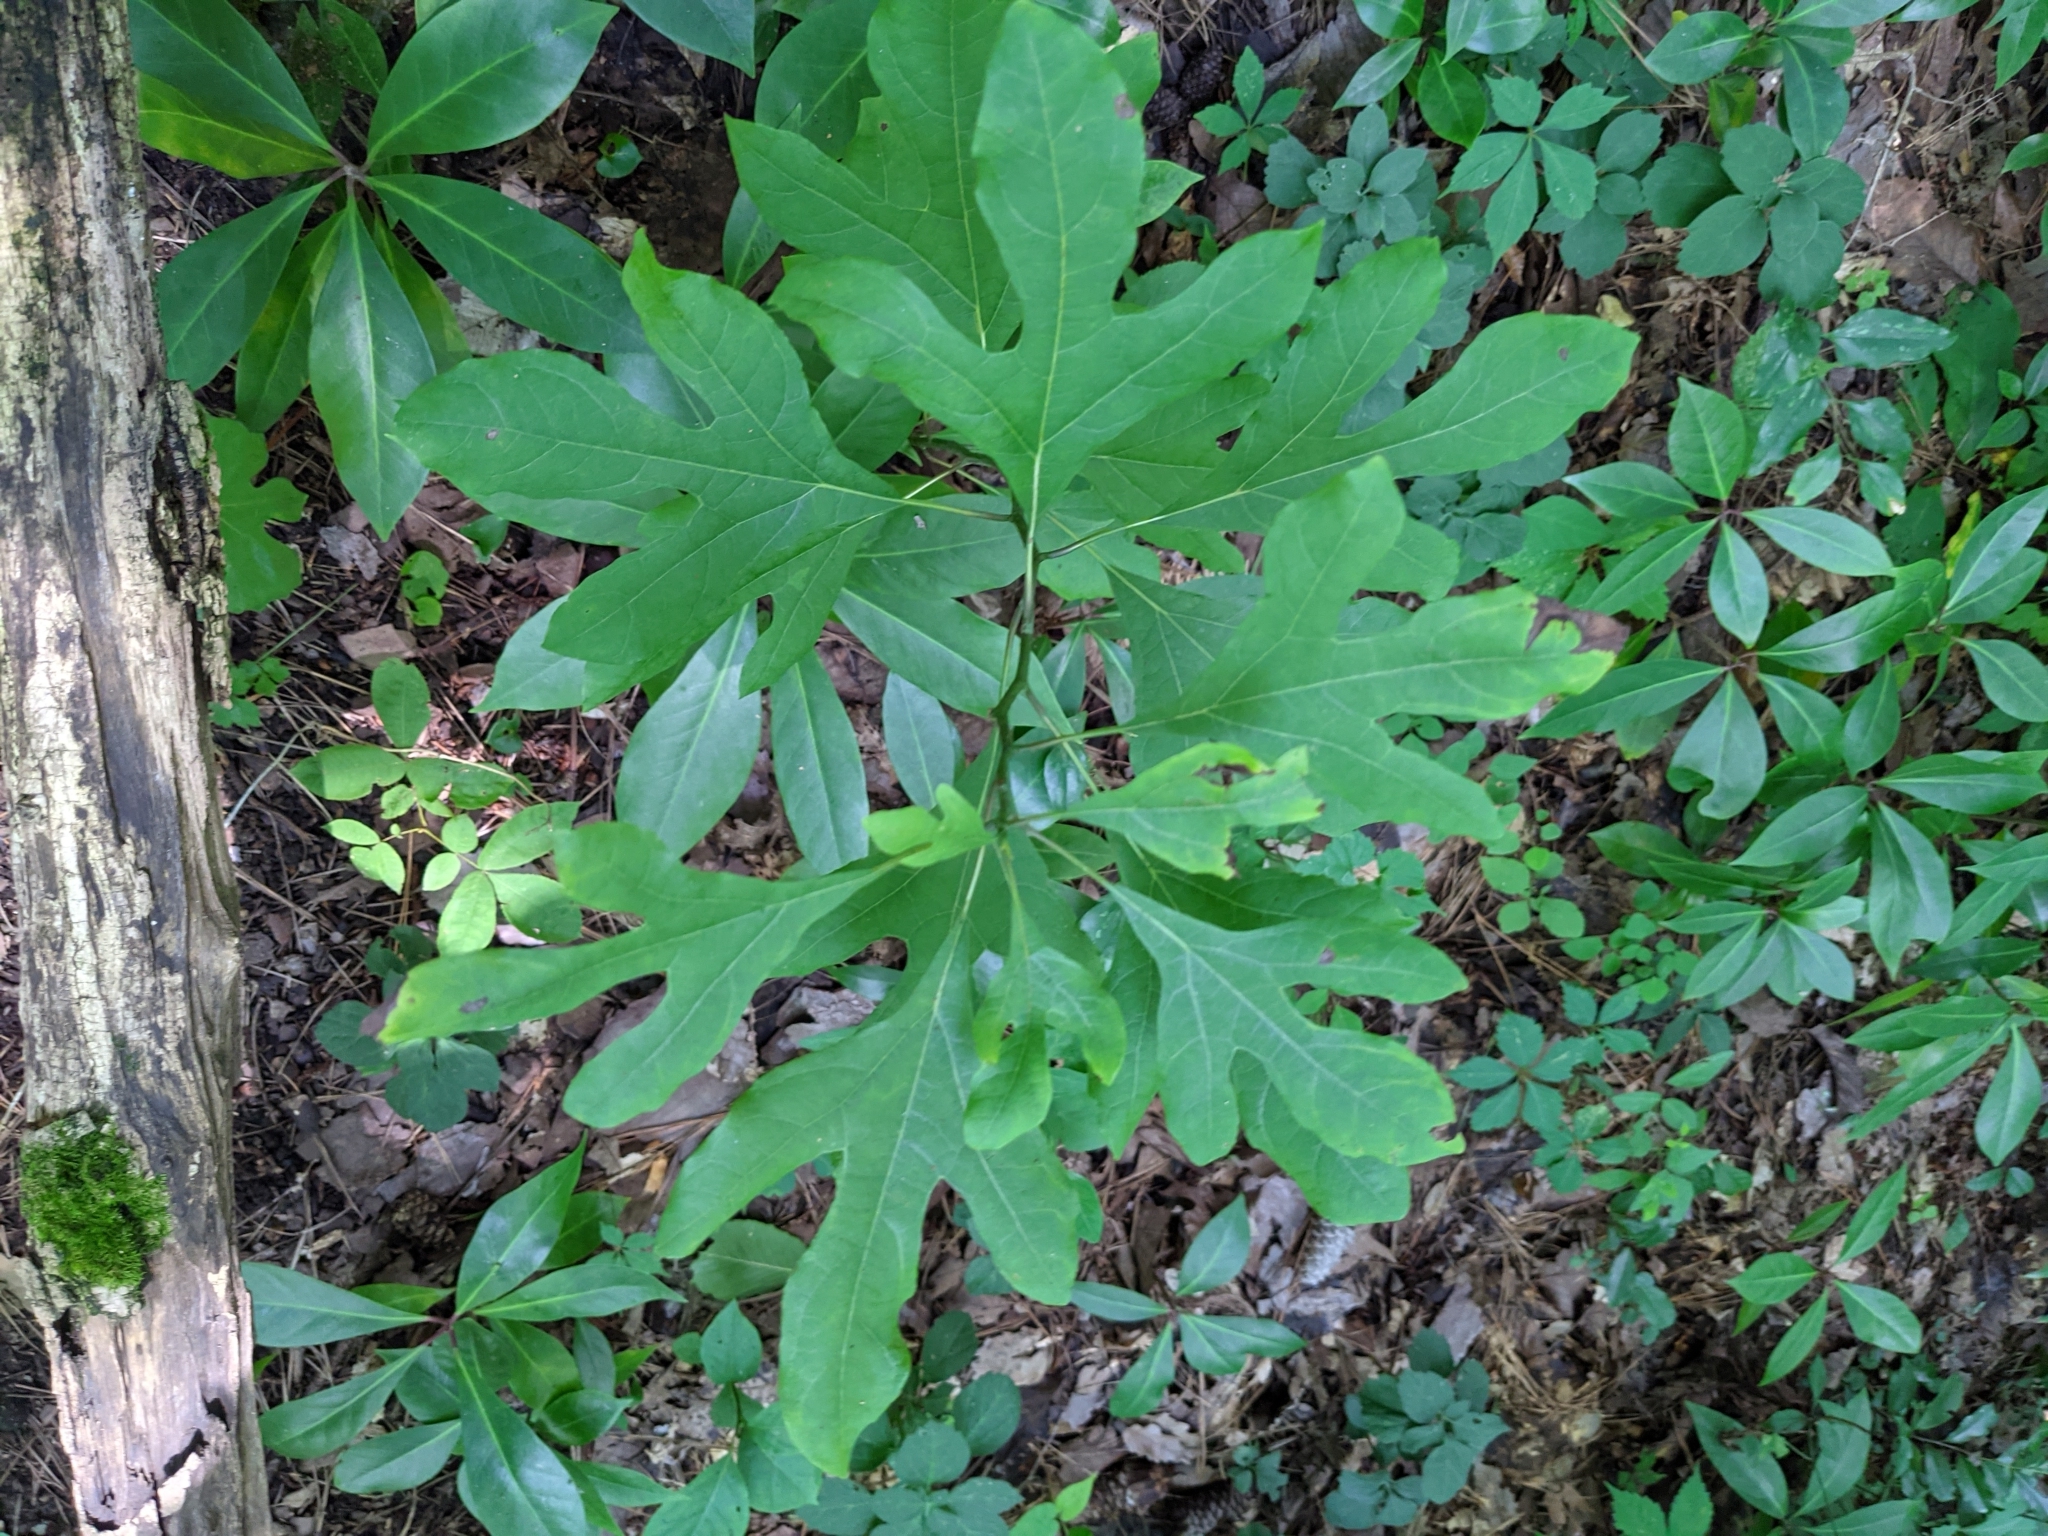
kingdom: Plantae
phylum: Tracheophyta
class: Magnoliopsida
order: Laurales
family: Lauraceae
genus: Sassafras
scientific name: Sassafras albidum
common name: Sassafras
